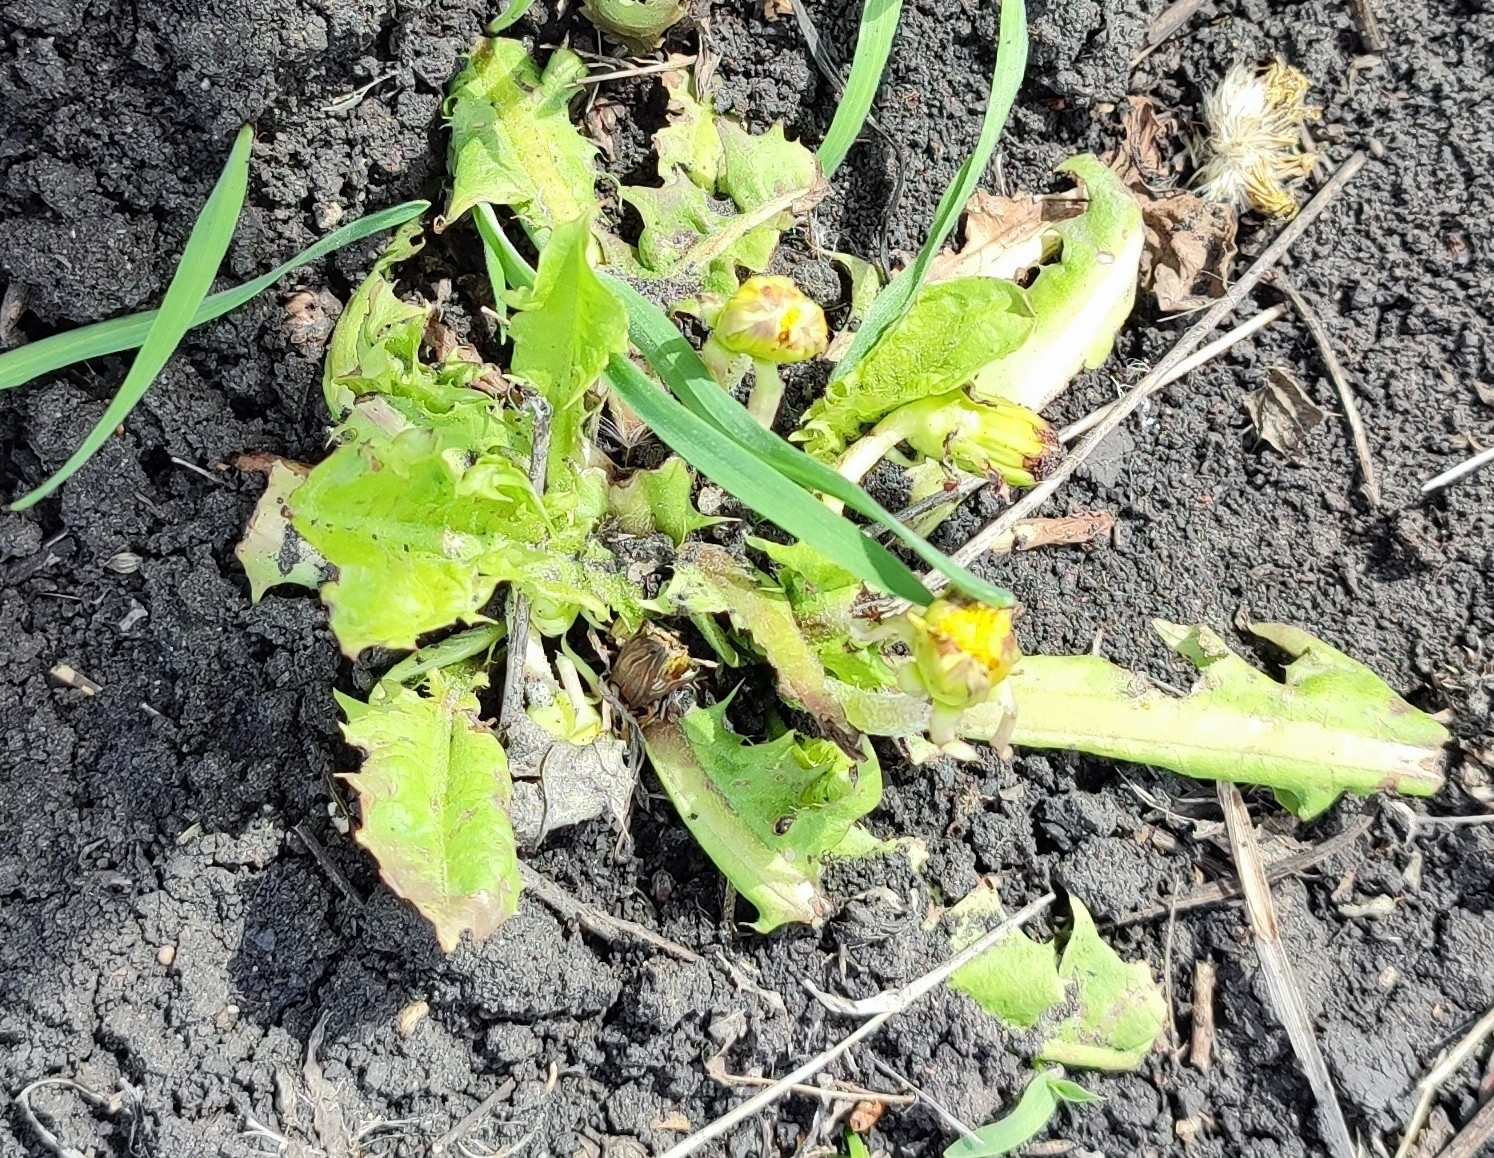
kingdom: Plantae
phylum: Tracheophyta
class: Magnoliopsida
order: Asterales
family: Asteraceae
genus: Taraxacum
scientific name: Taraxacum officinale
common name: Common dandelion
